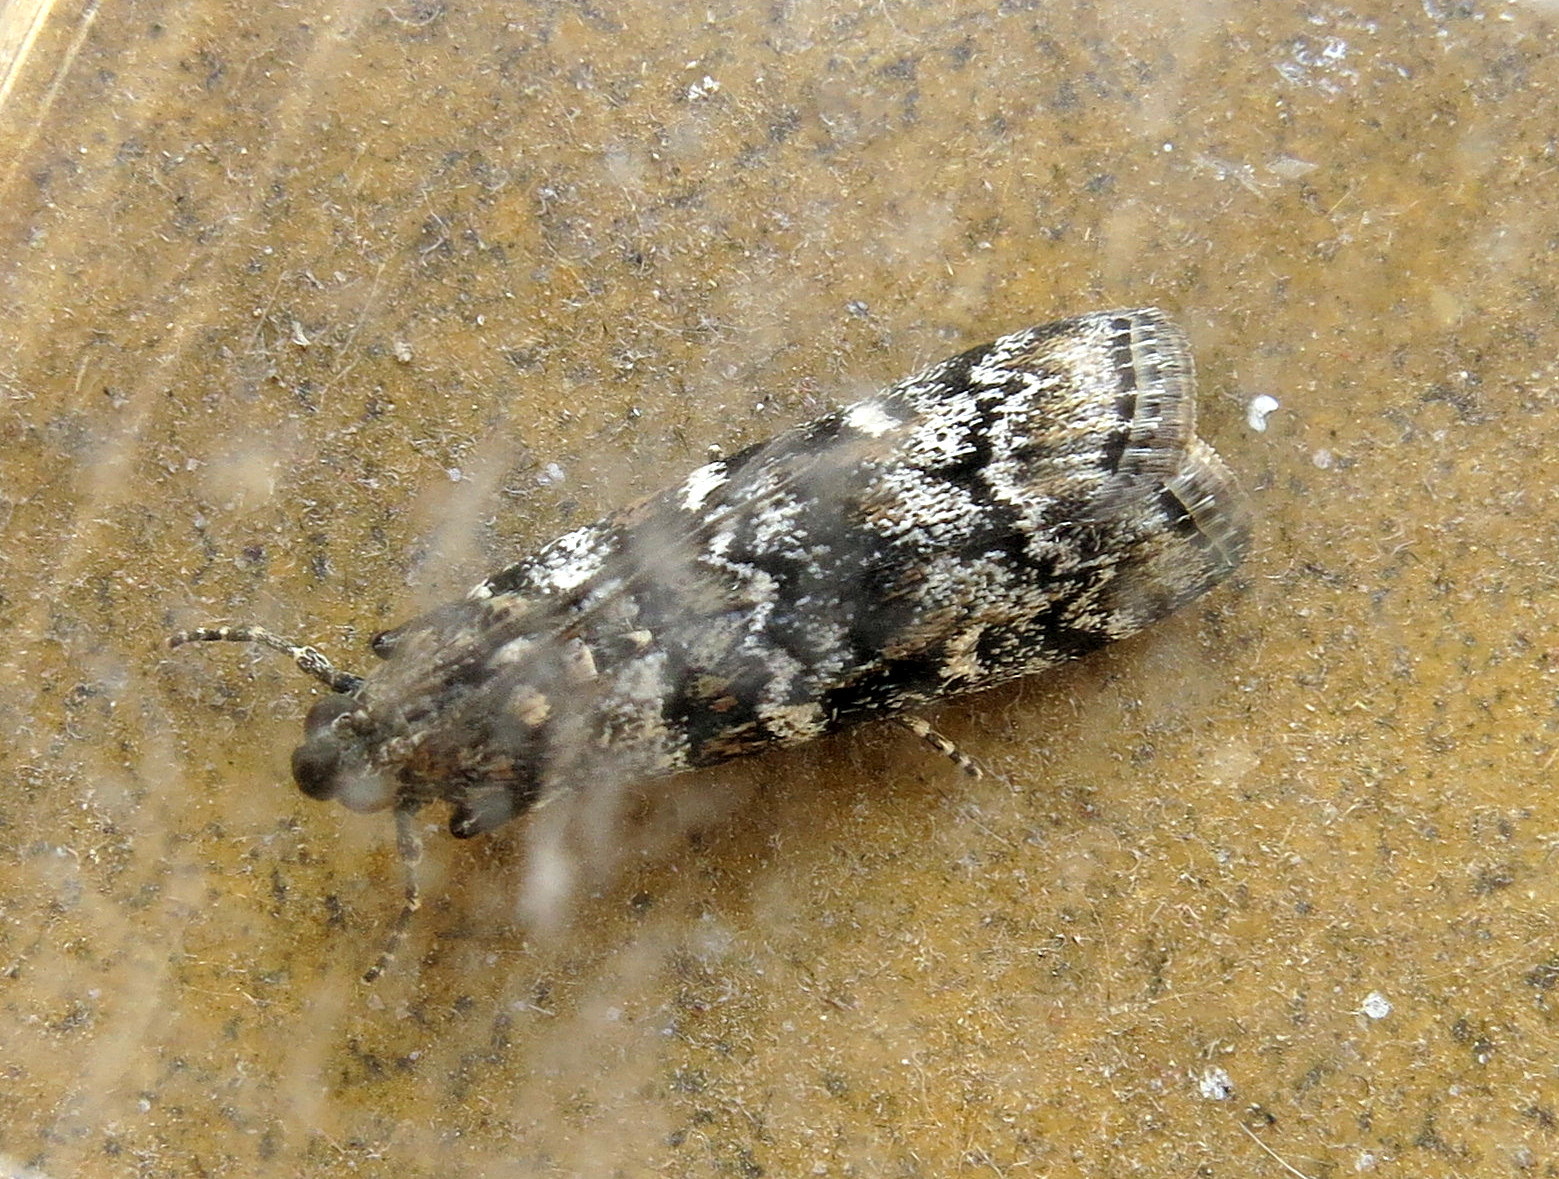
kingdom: Animalia
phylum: Arthropoda
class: Insecta
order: Lepidoptera
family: Pyralidae
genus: Dioryctria
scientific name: Dioryctria abietella
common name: Dark pine knot-horn
